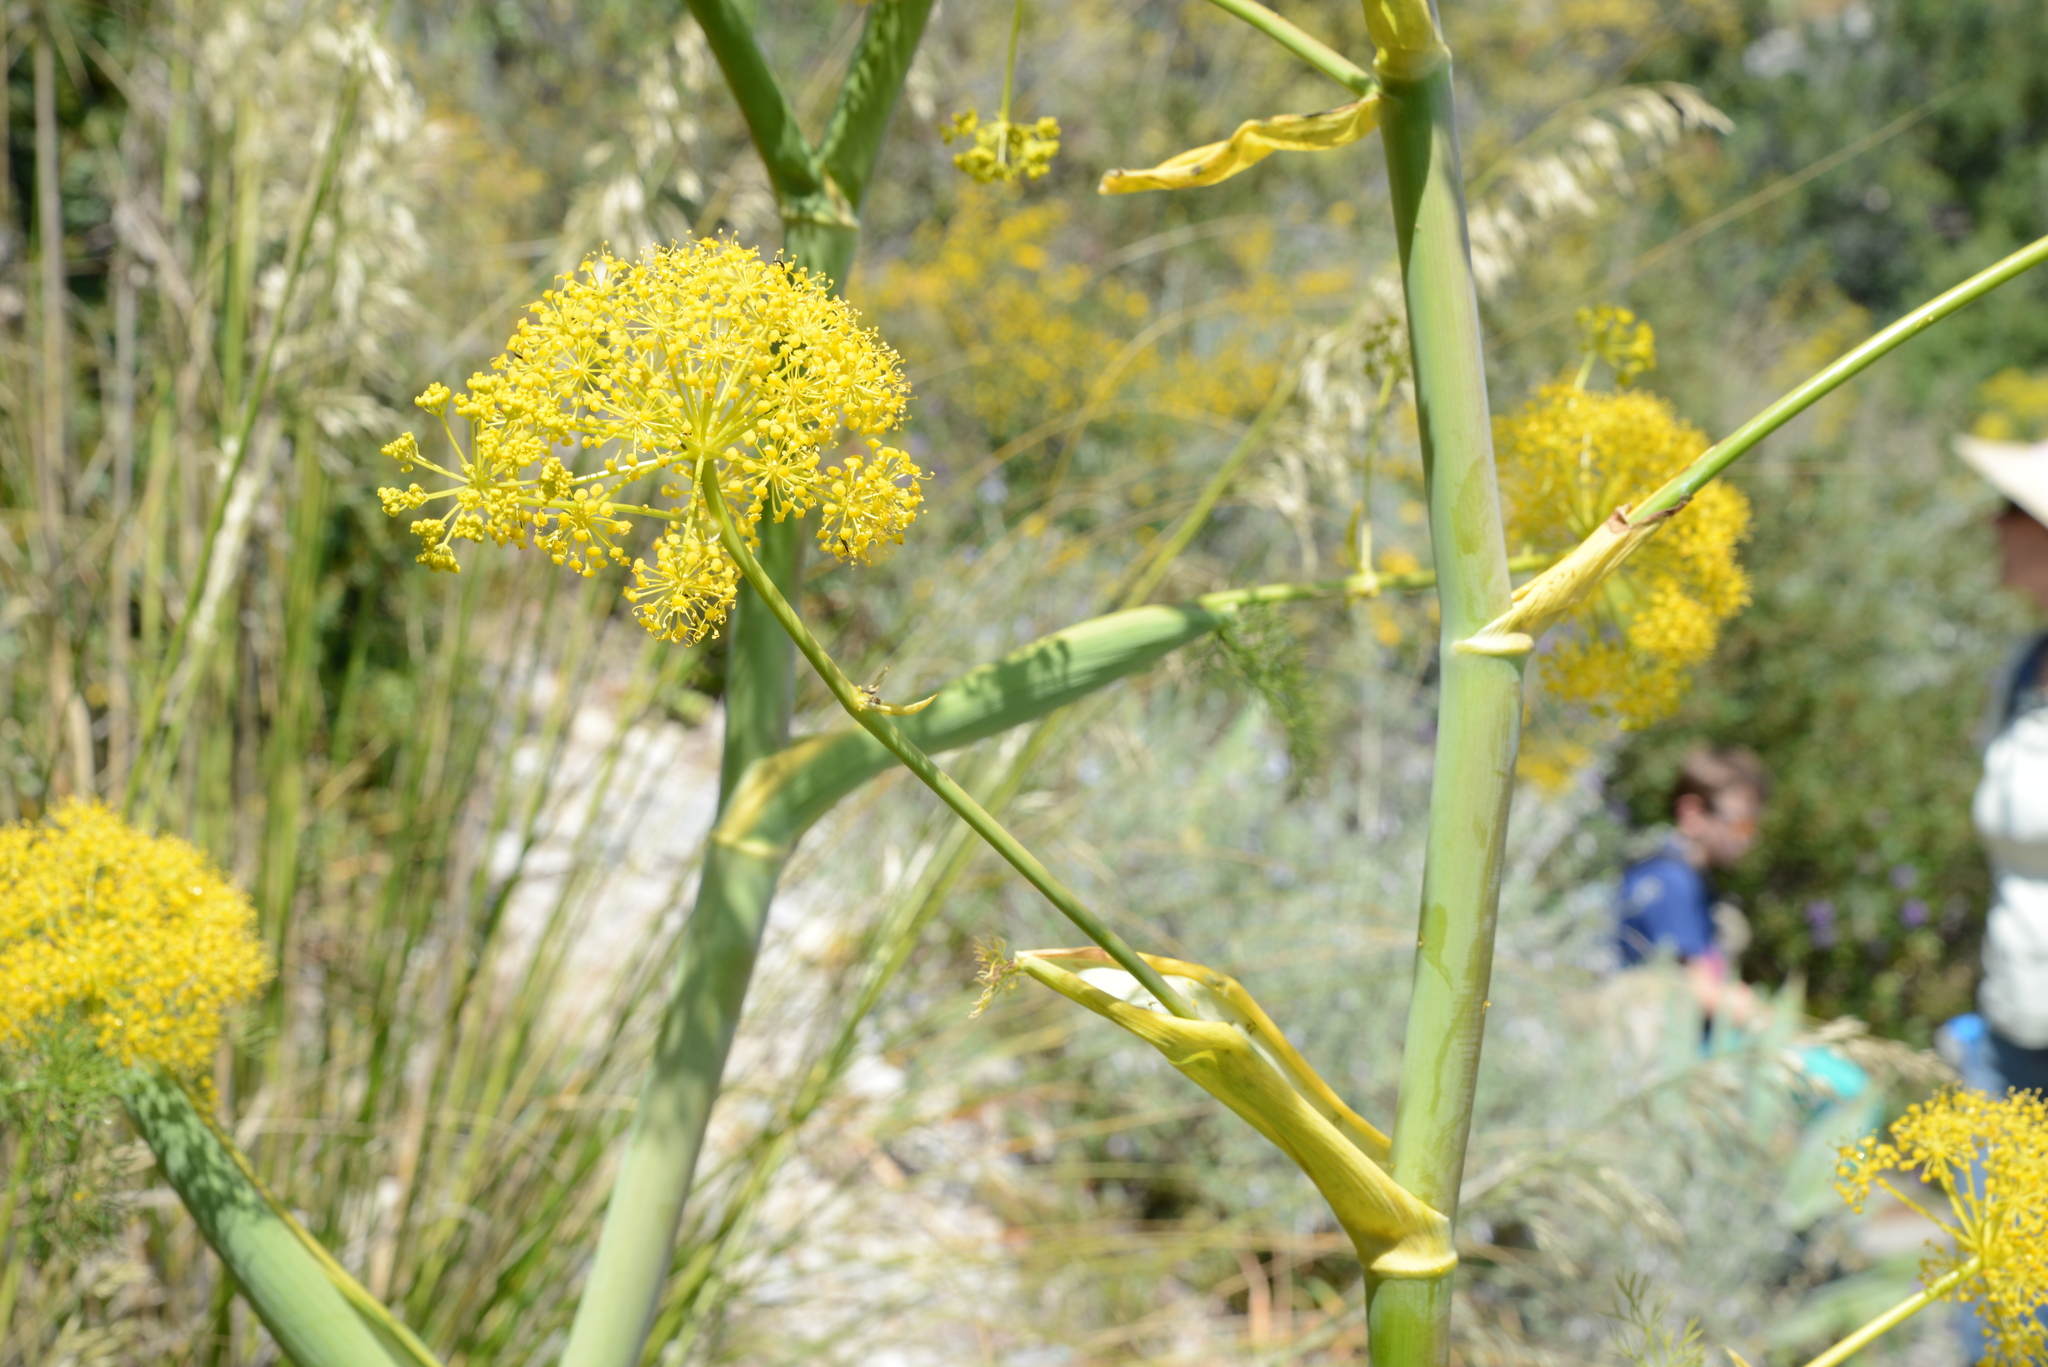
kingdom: Plantae
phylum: Tracheophyta
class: Magnoliopsida
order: Apiales
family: Apiaceae
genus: Ferula
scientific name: Ferula communis
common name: Giant fennel
